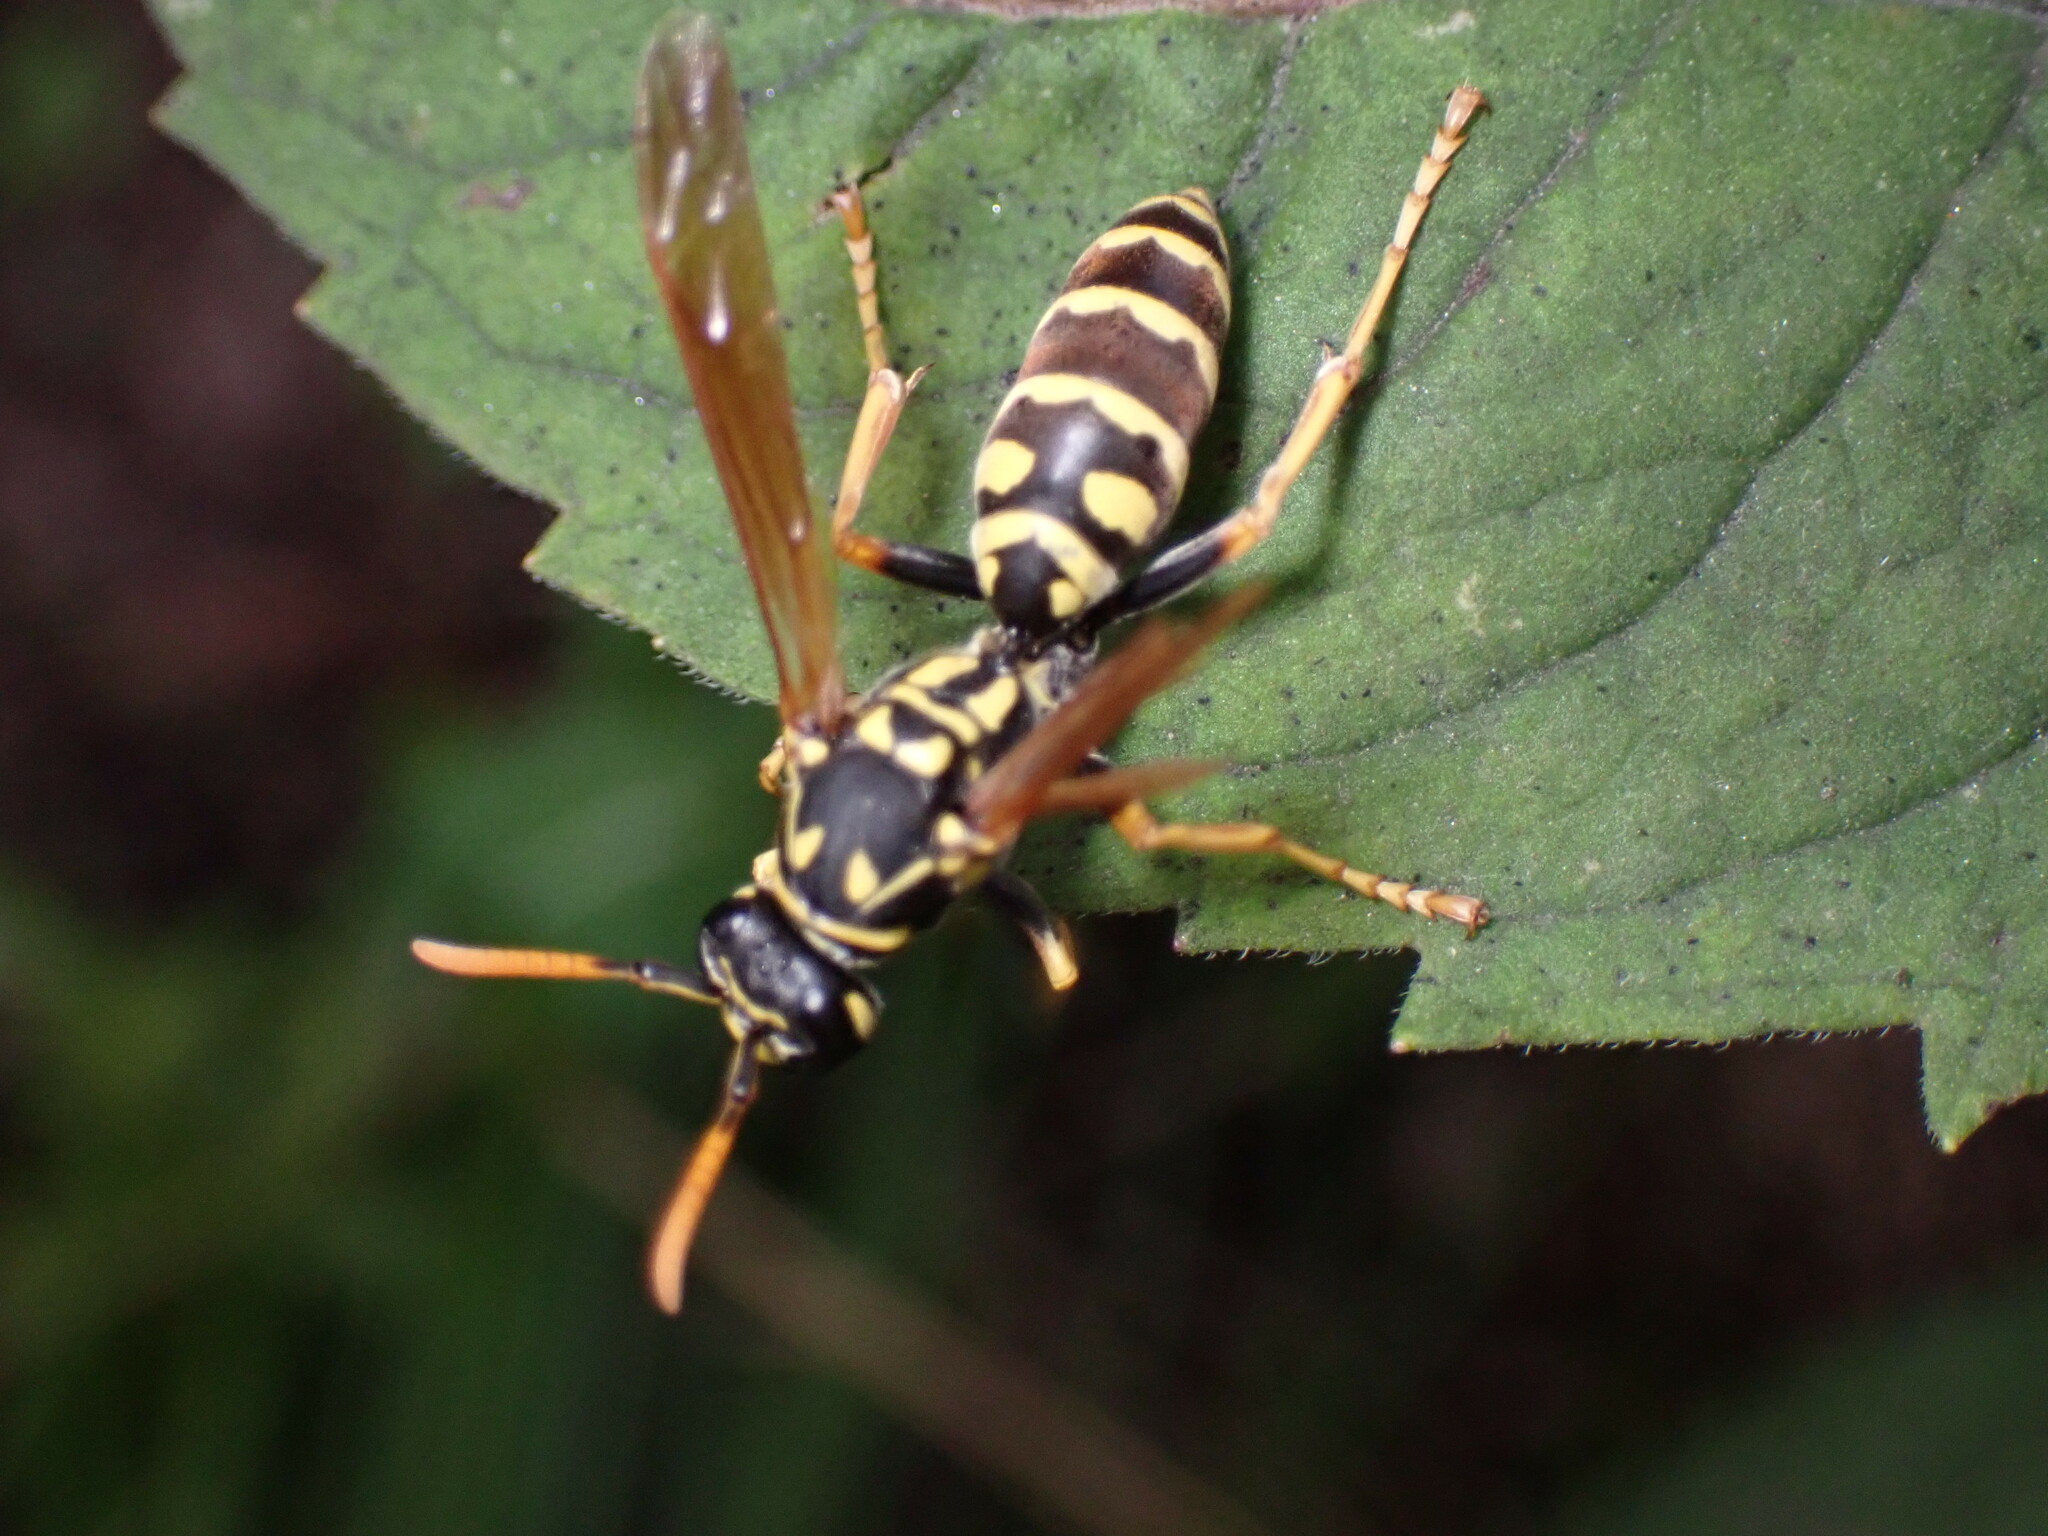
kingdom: Animalia
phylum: Arthropoda
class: Insecta
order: Hymenoptera
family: Eumenidae
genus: Polistes
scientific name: Polistes dominula
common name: Paper wasp
